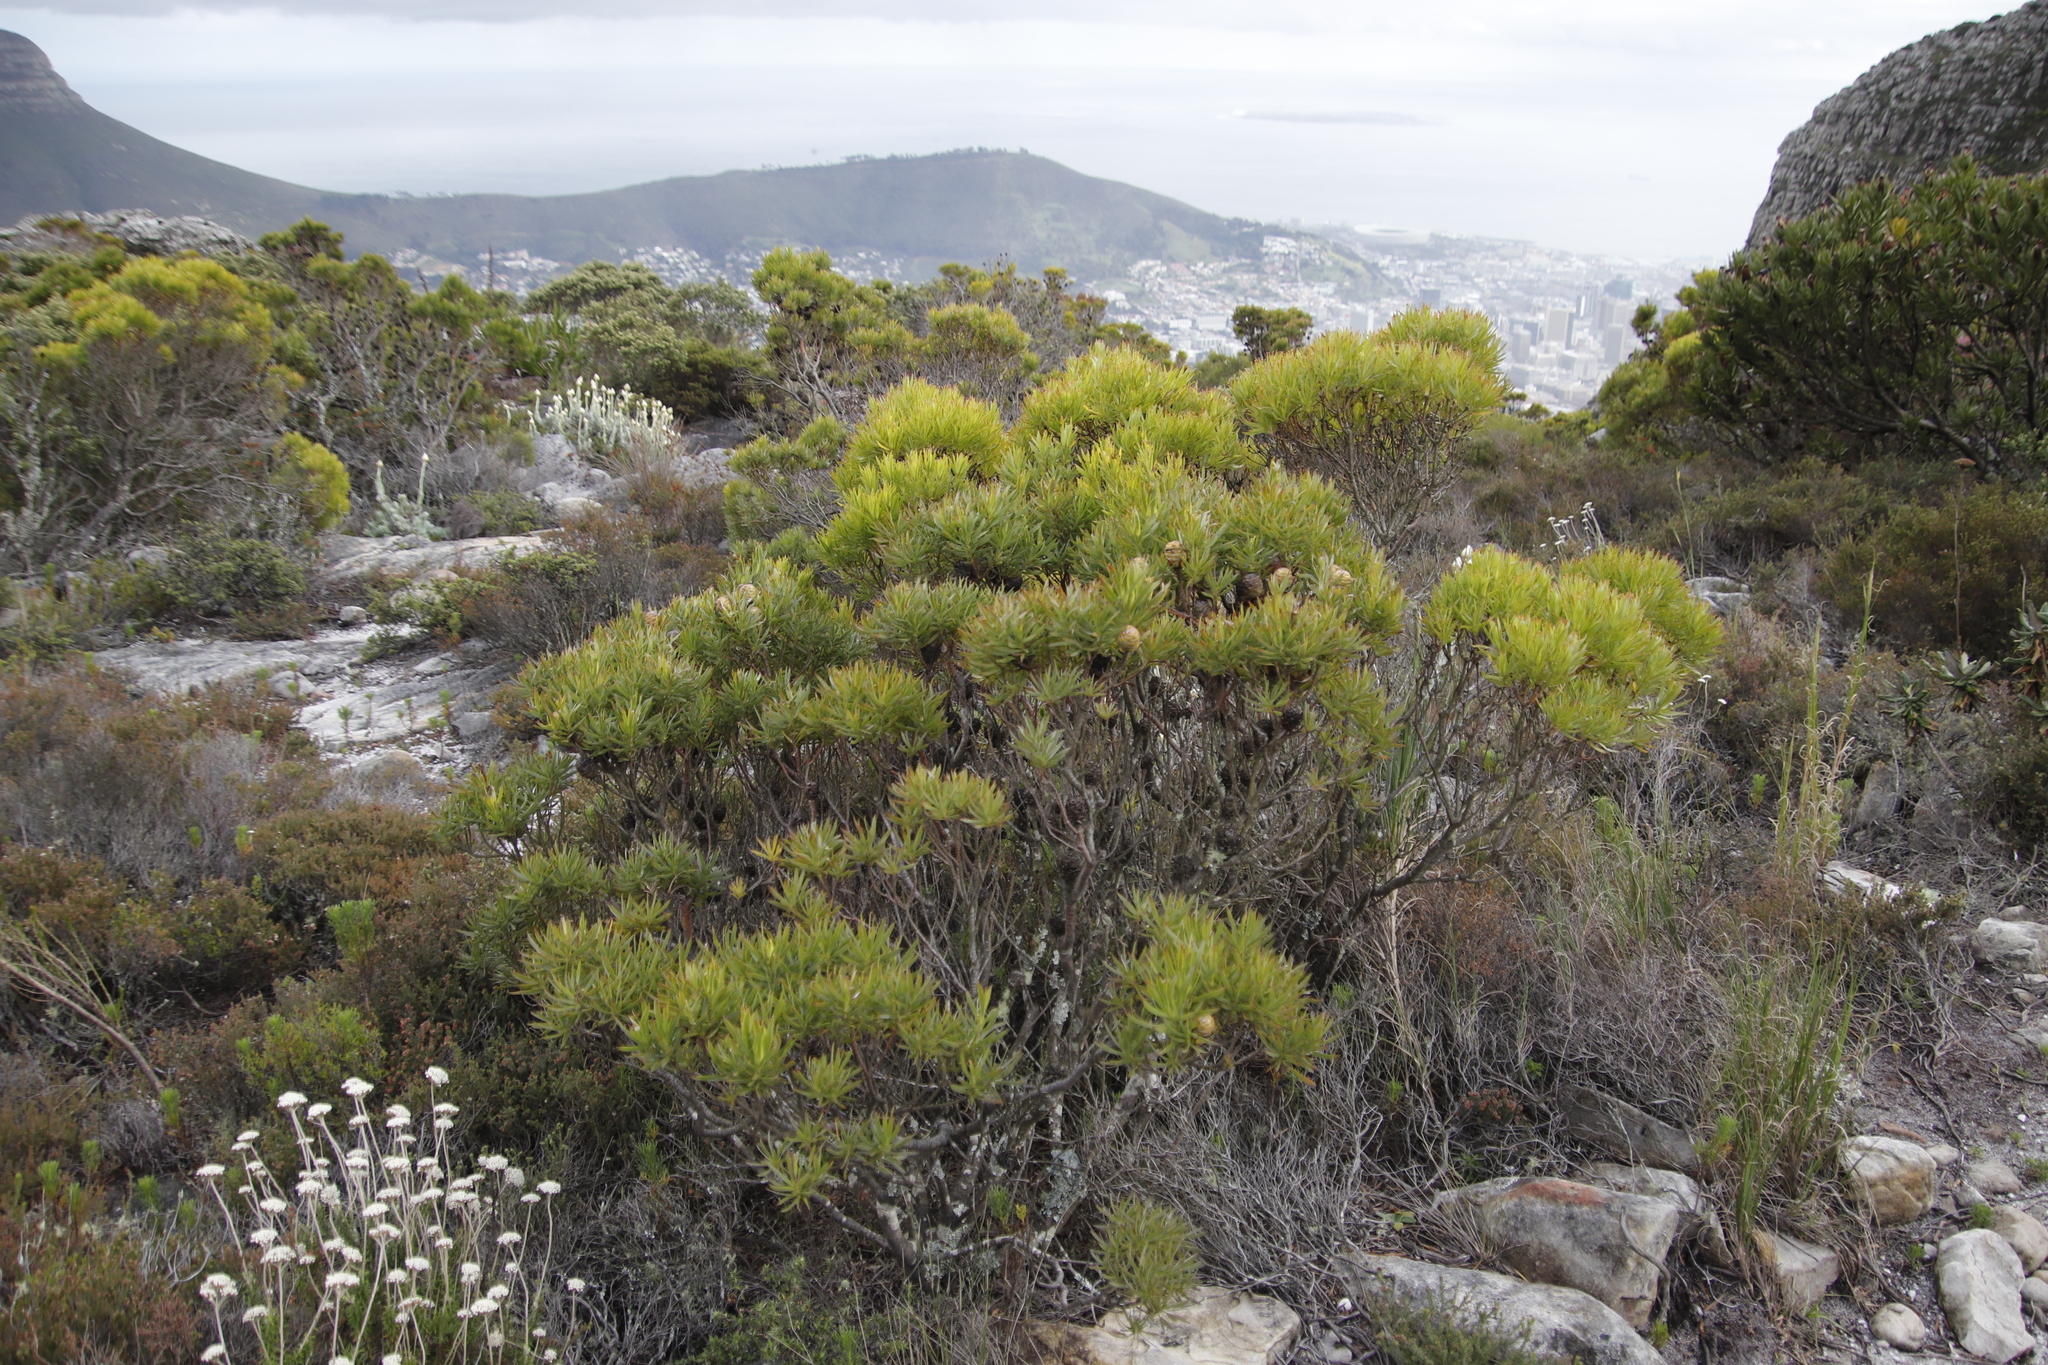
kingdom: Plantae
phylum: Tracheophyta
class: Magnoliopsida
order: Proteales
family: Proteaceae
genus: Leucadendron
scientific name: Leucadendron xanthoconus
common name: Sickle-leaf conebush
